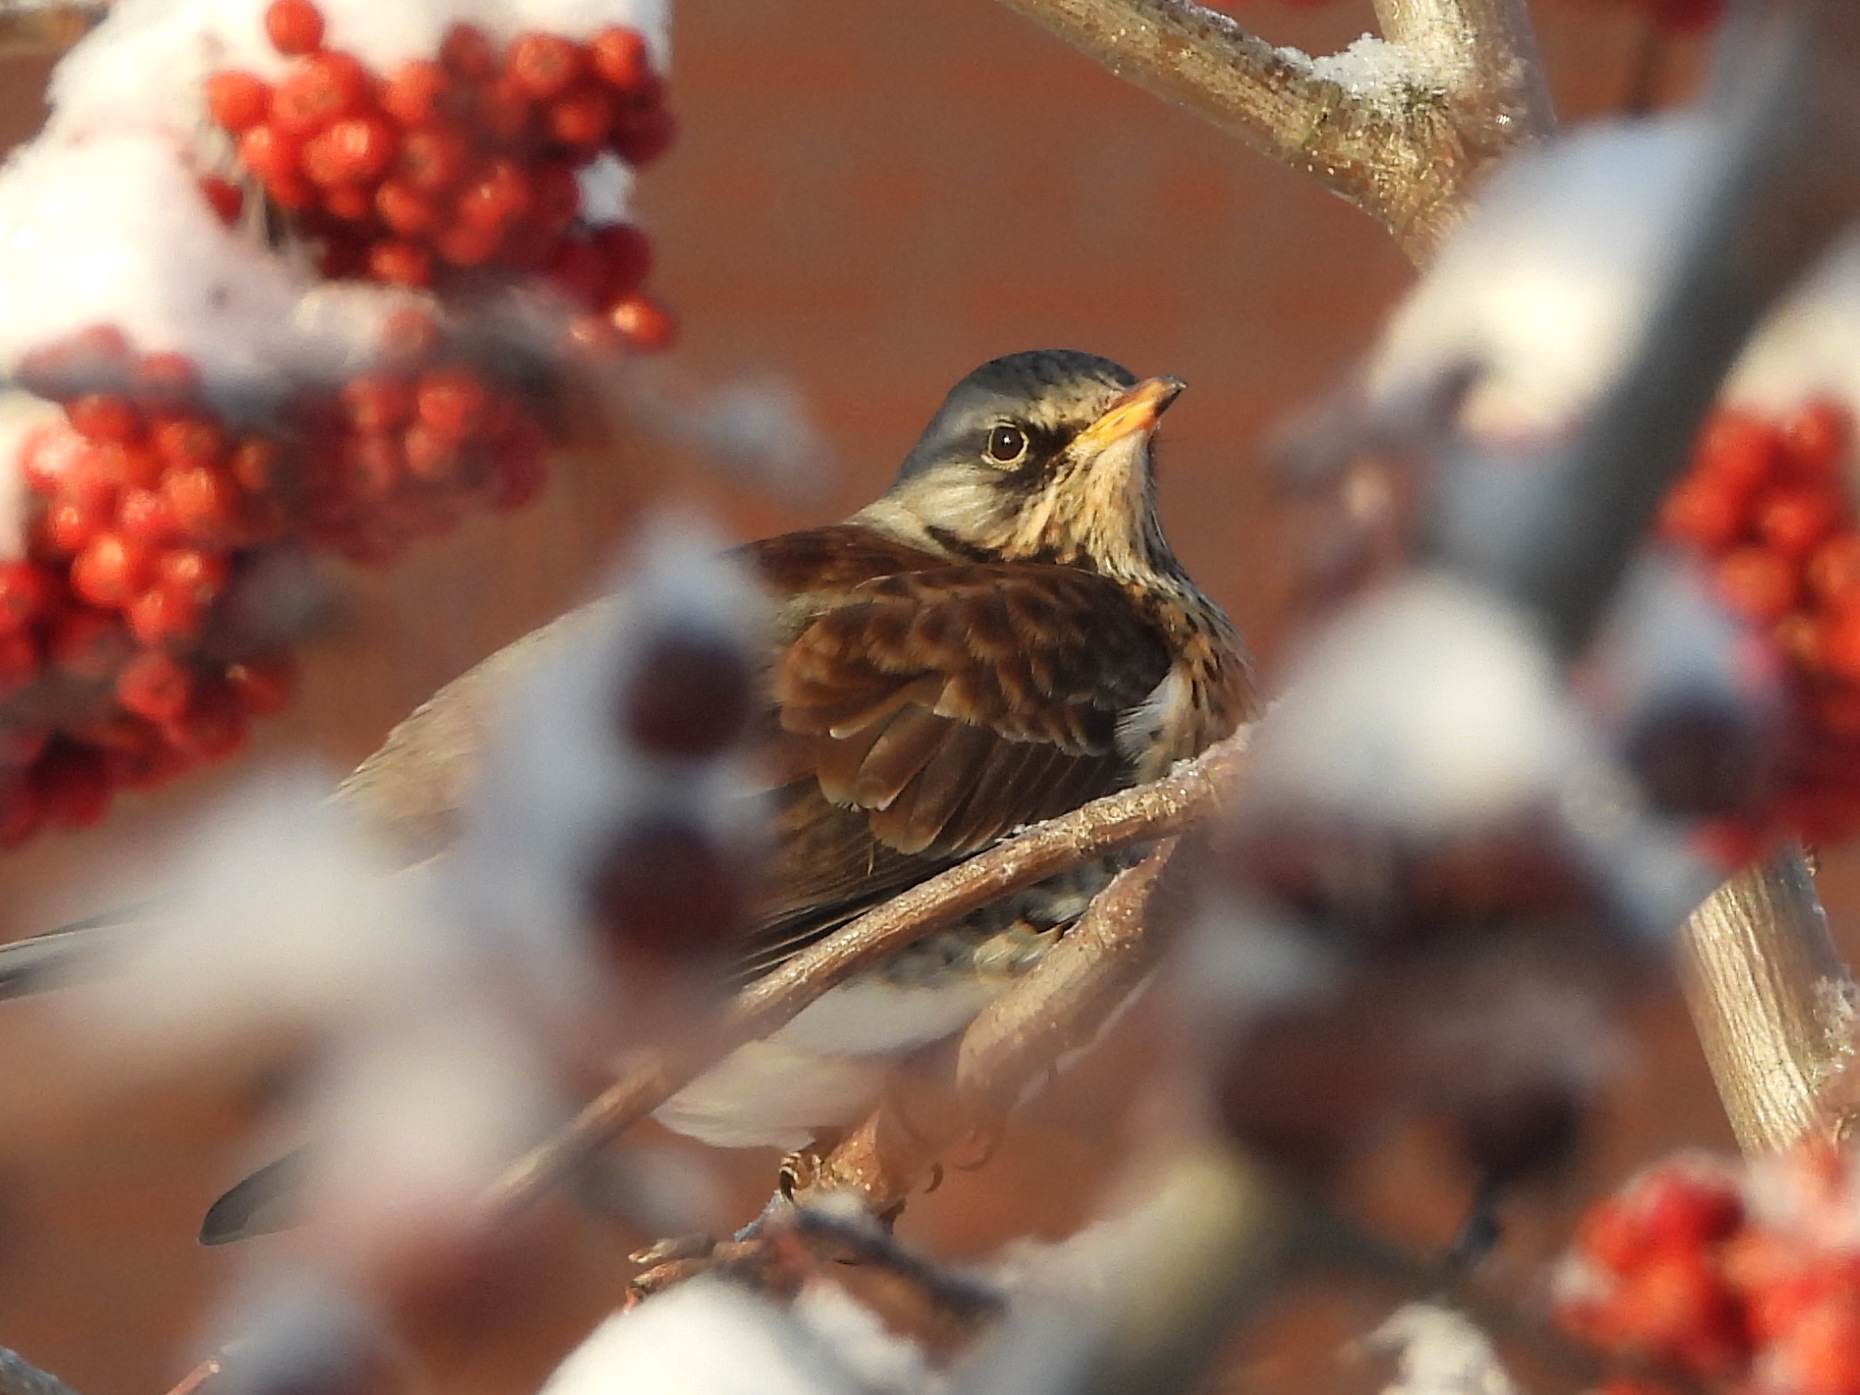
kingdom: Animalia
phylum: Chordata
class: Aves
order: Passeriformes
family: Turdidae
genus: Turdus
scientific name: Turdus pilaris
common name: Fieldfare
